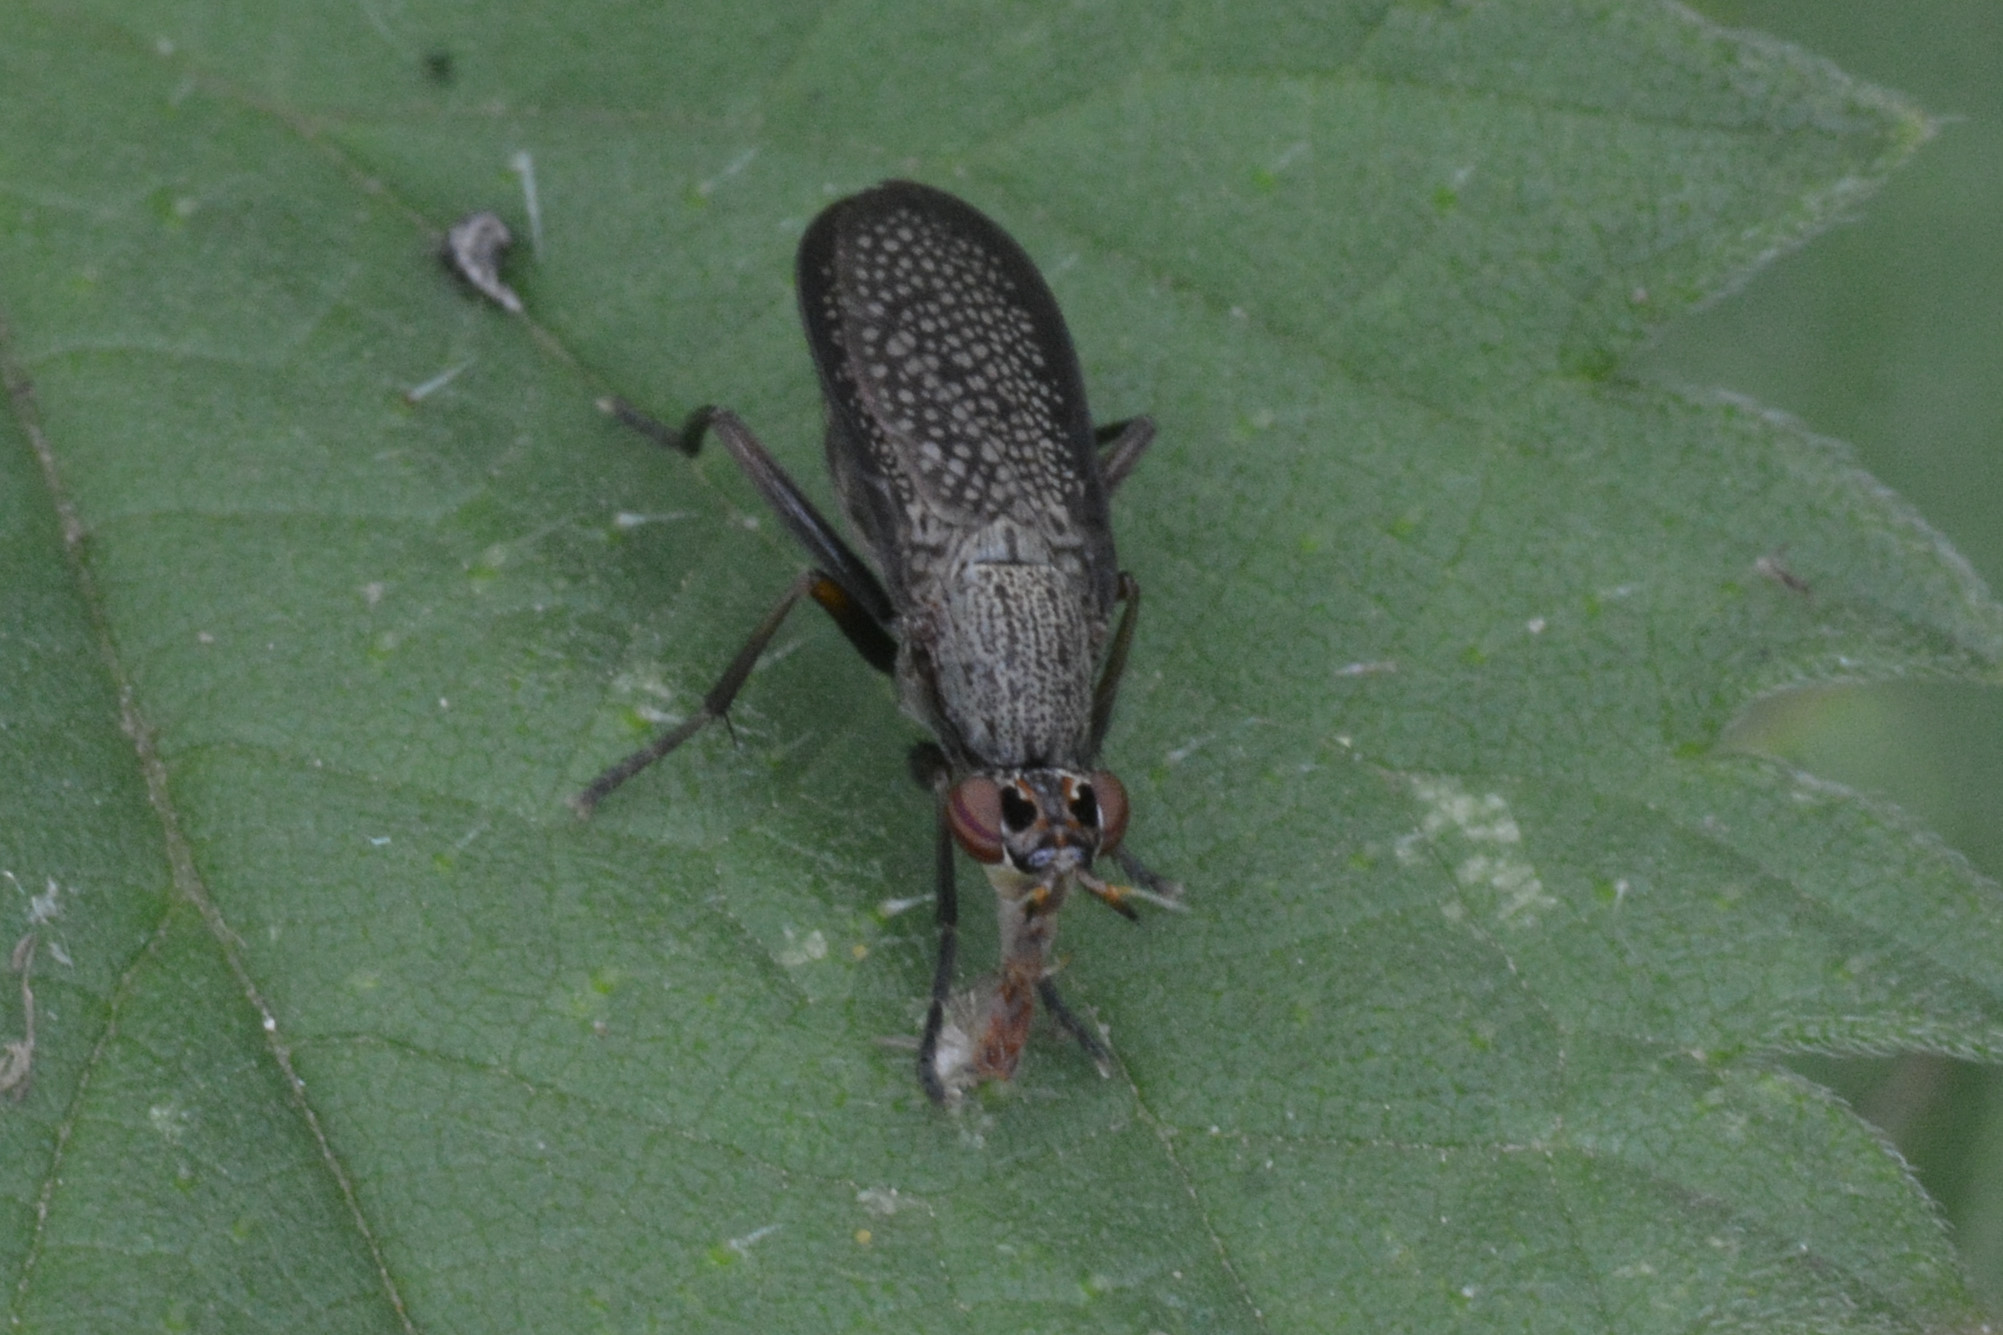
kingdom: Animalia
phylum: Arthropoda
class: Insecta
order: Diptera
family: Sciomyzidae
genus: Coremacera
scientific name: Coremacera marginata
